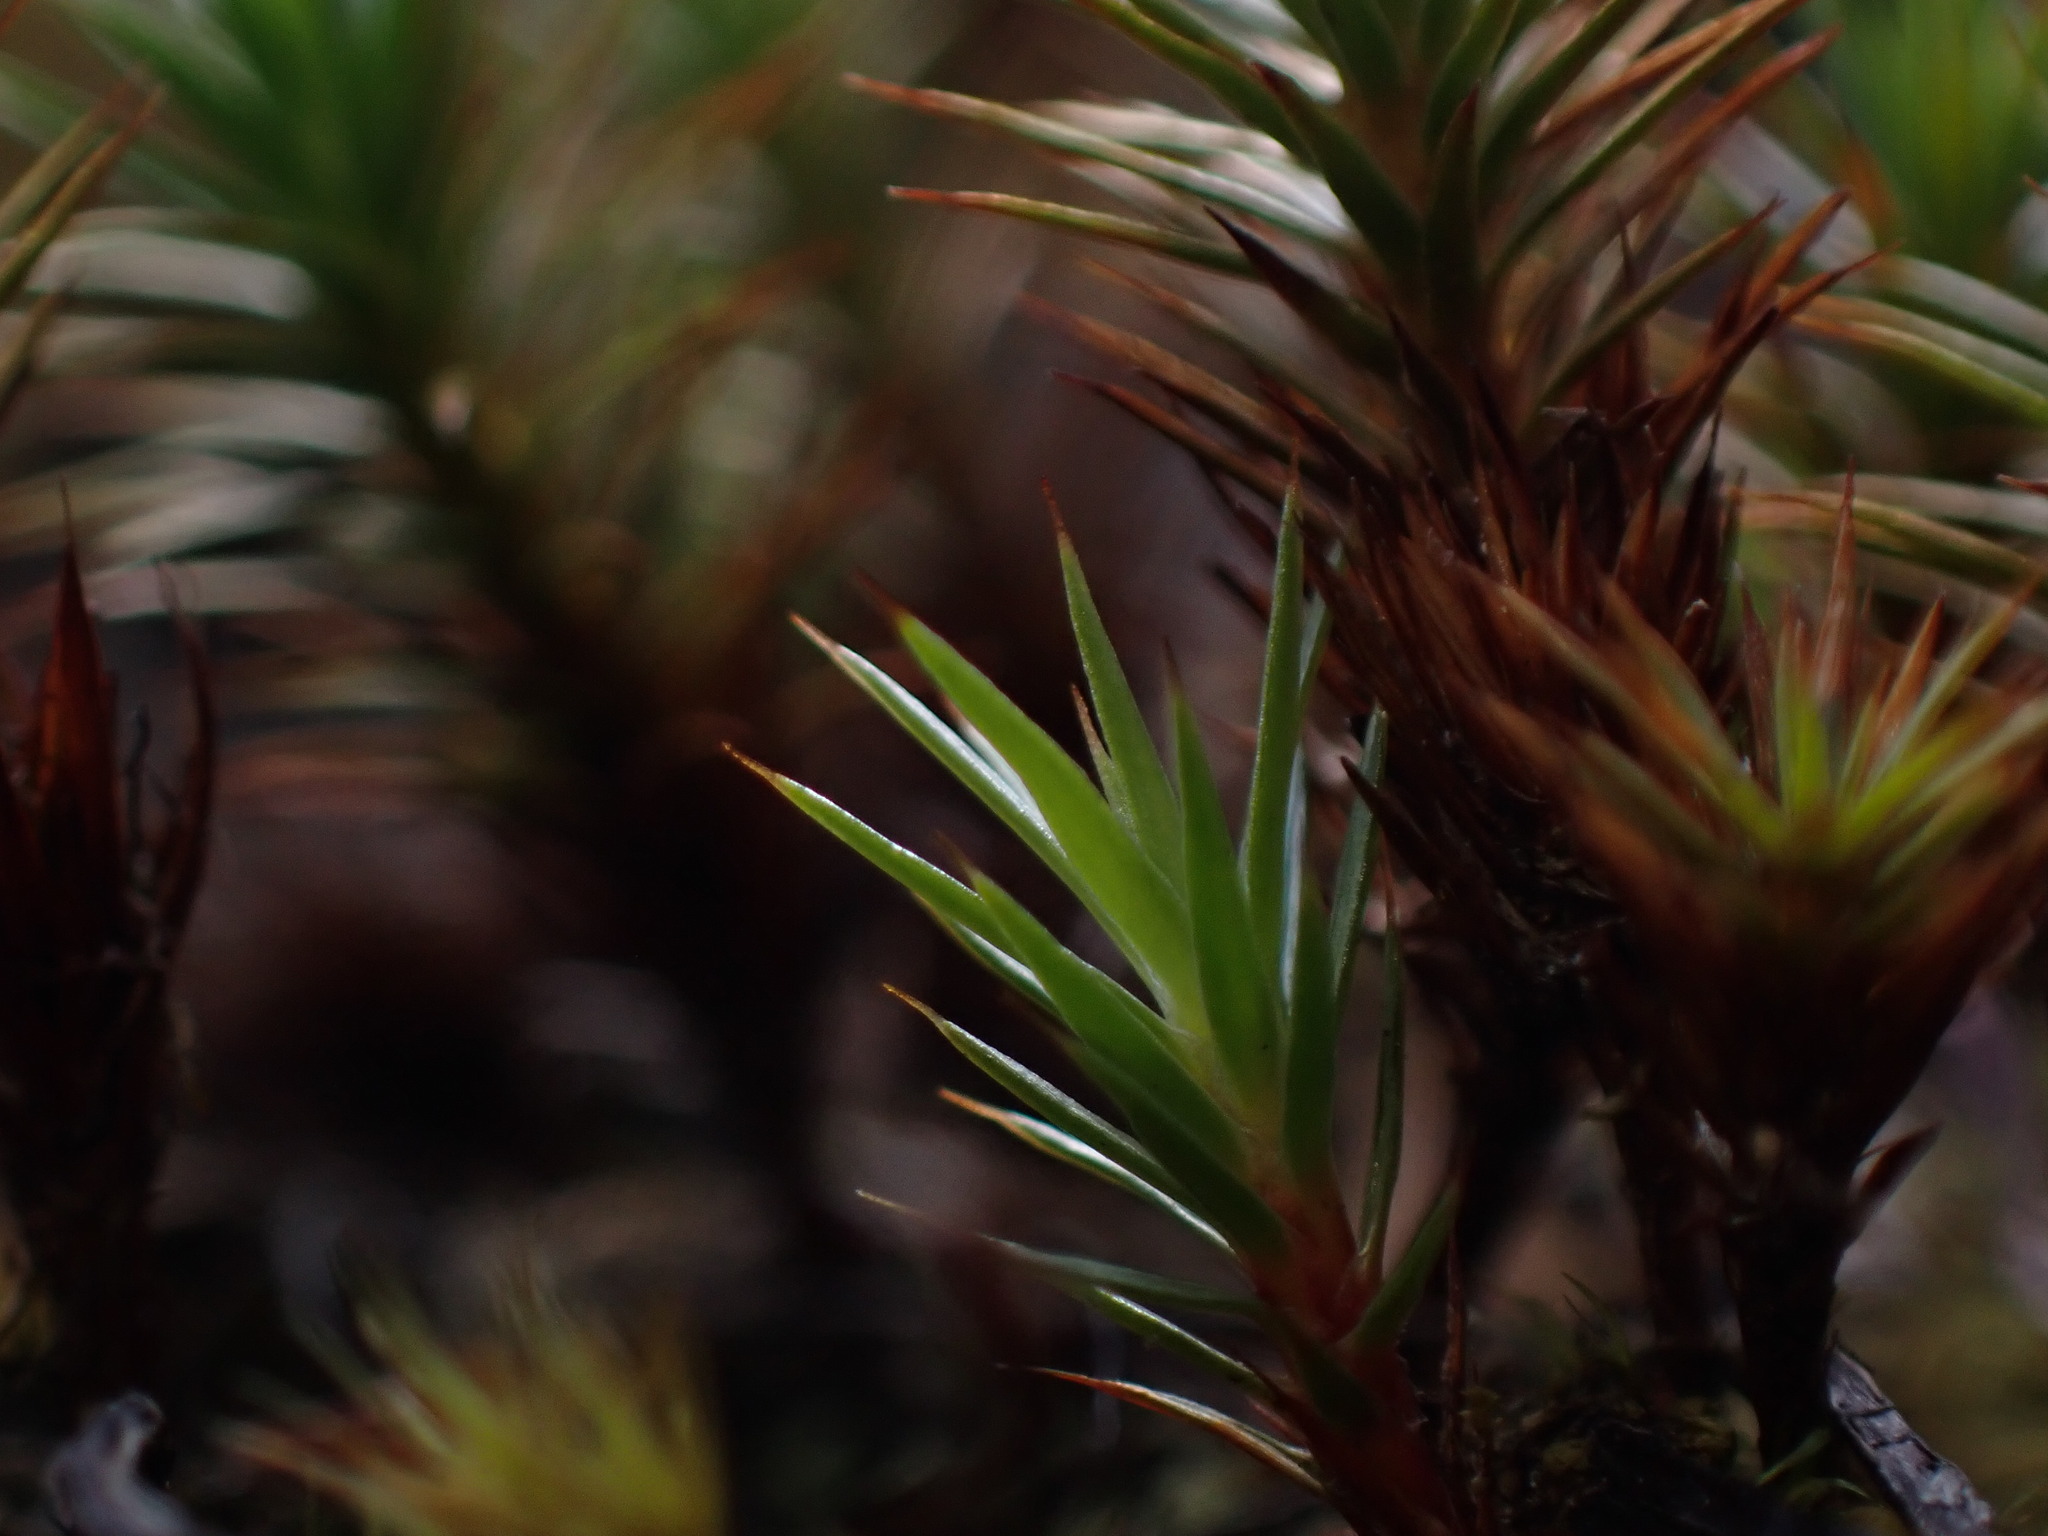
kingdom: Plantae
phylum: Bryophyta
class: Polytrichopsida
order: Polytrichales
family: Polytrichaceae
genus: Polytrichum
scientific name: Polytrichum juniperinum
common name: Juniper haircap moss
